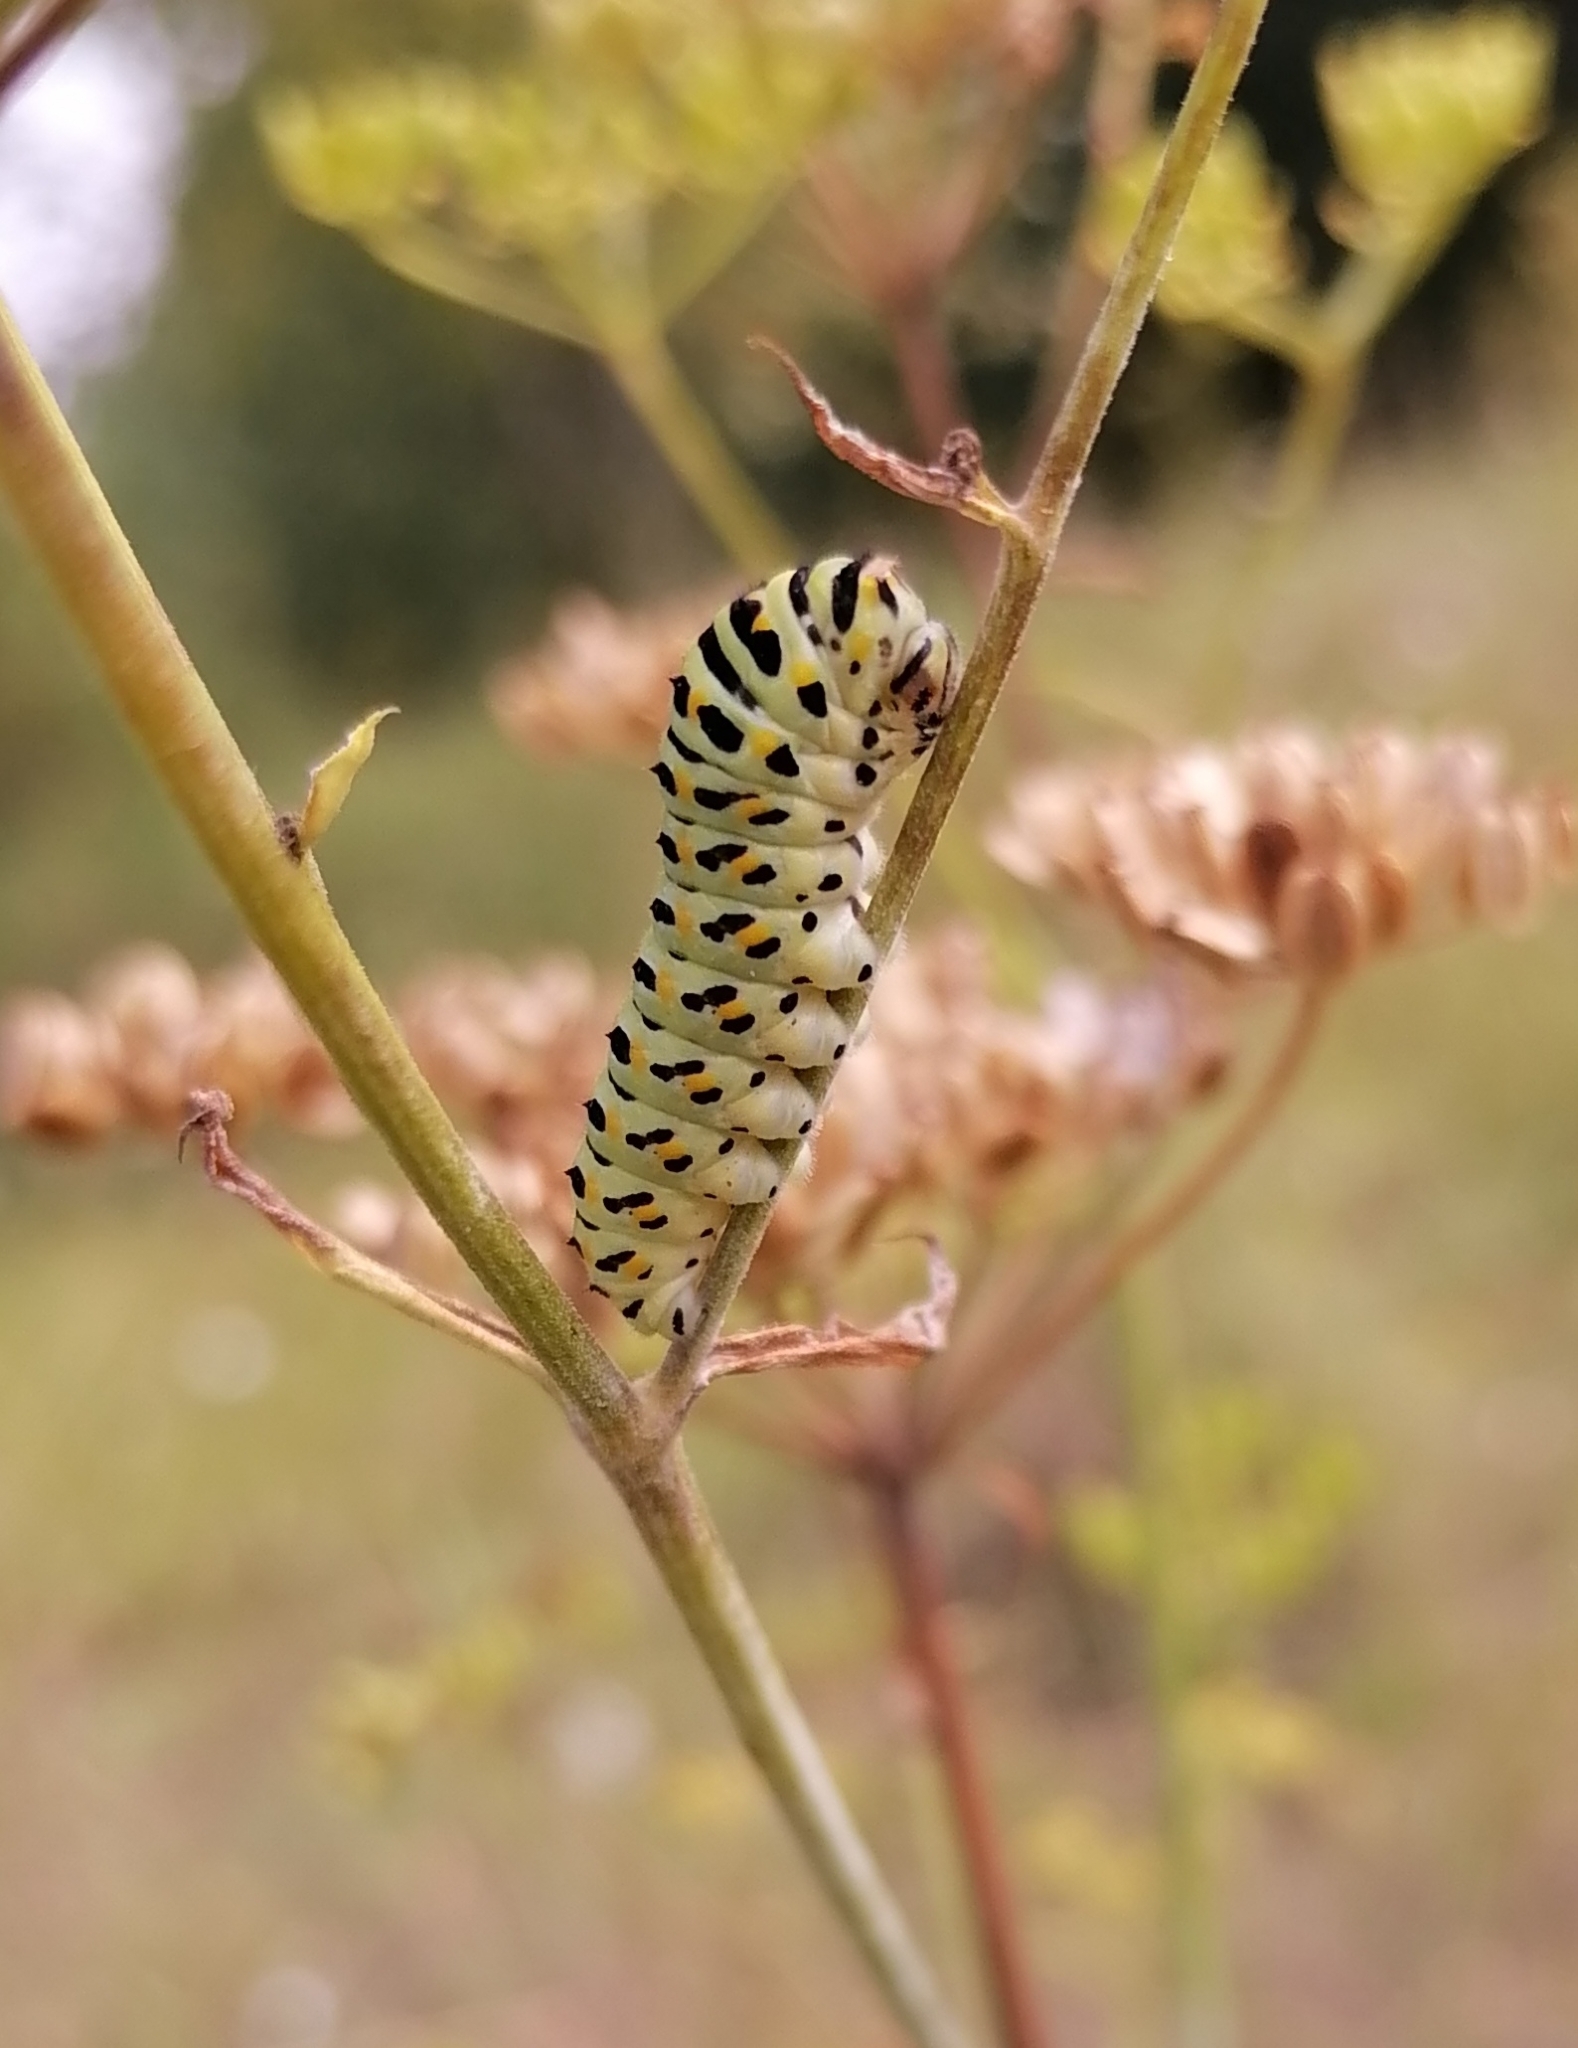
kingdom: Animalia
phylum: Arthropoda
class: Insecta
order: Lepidoptera
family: Papilionidae
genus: Papilio
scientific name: Papilio machaon
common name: Swallowtail
